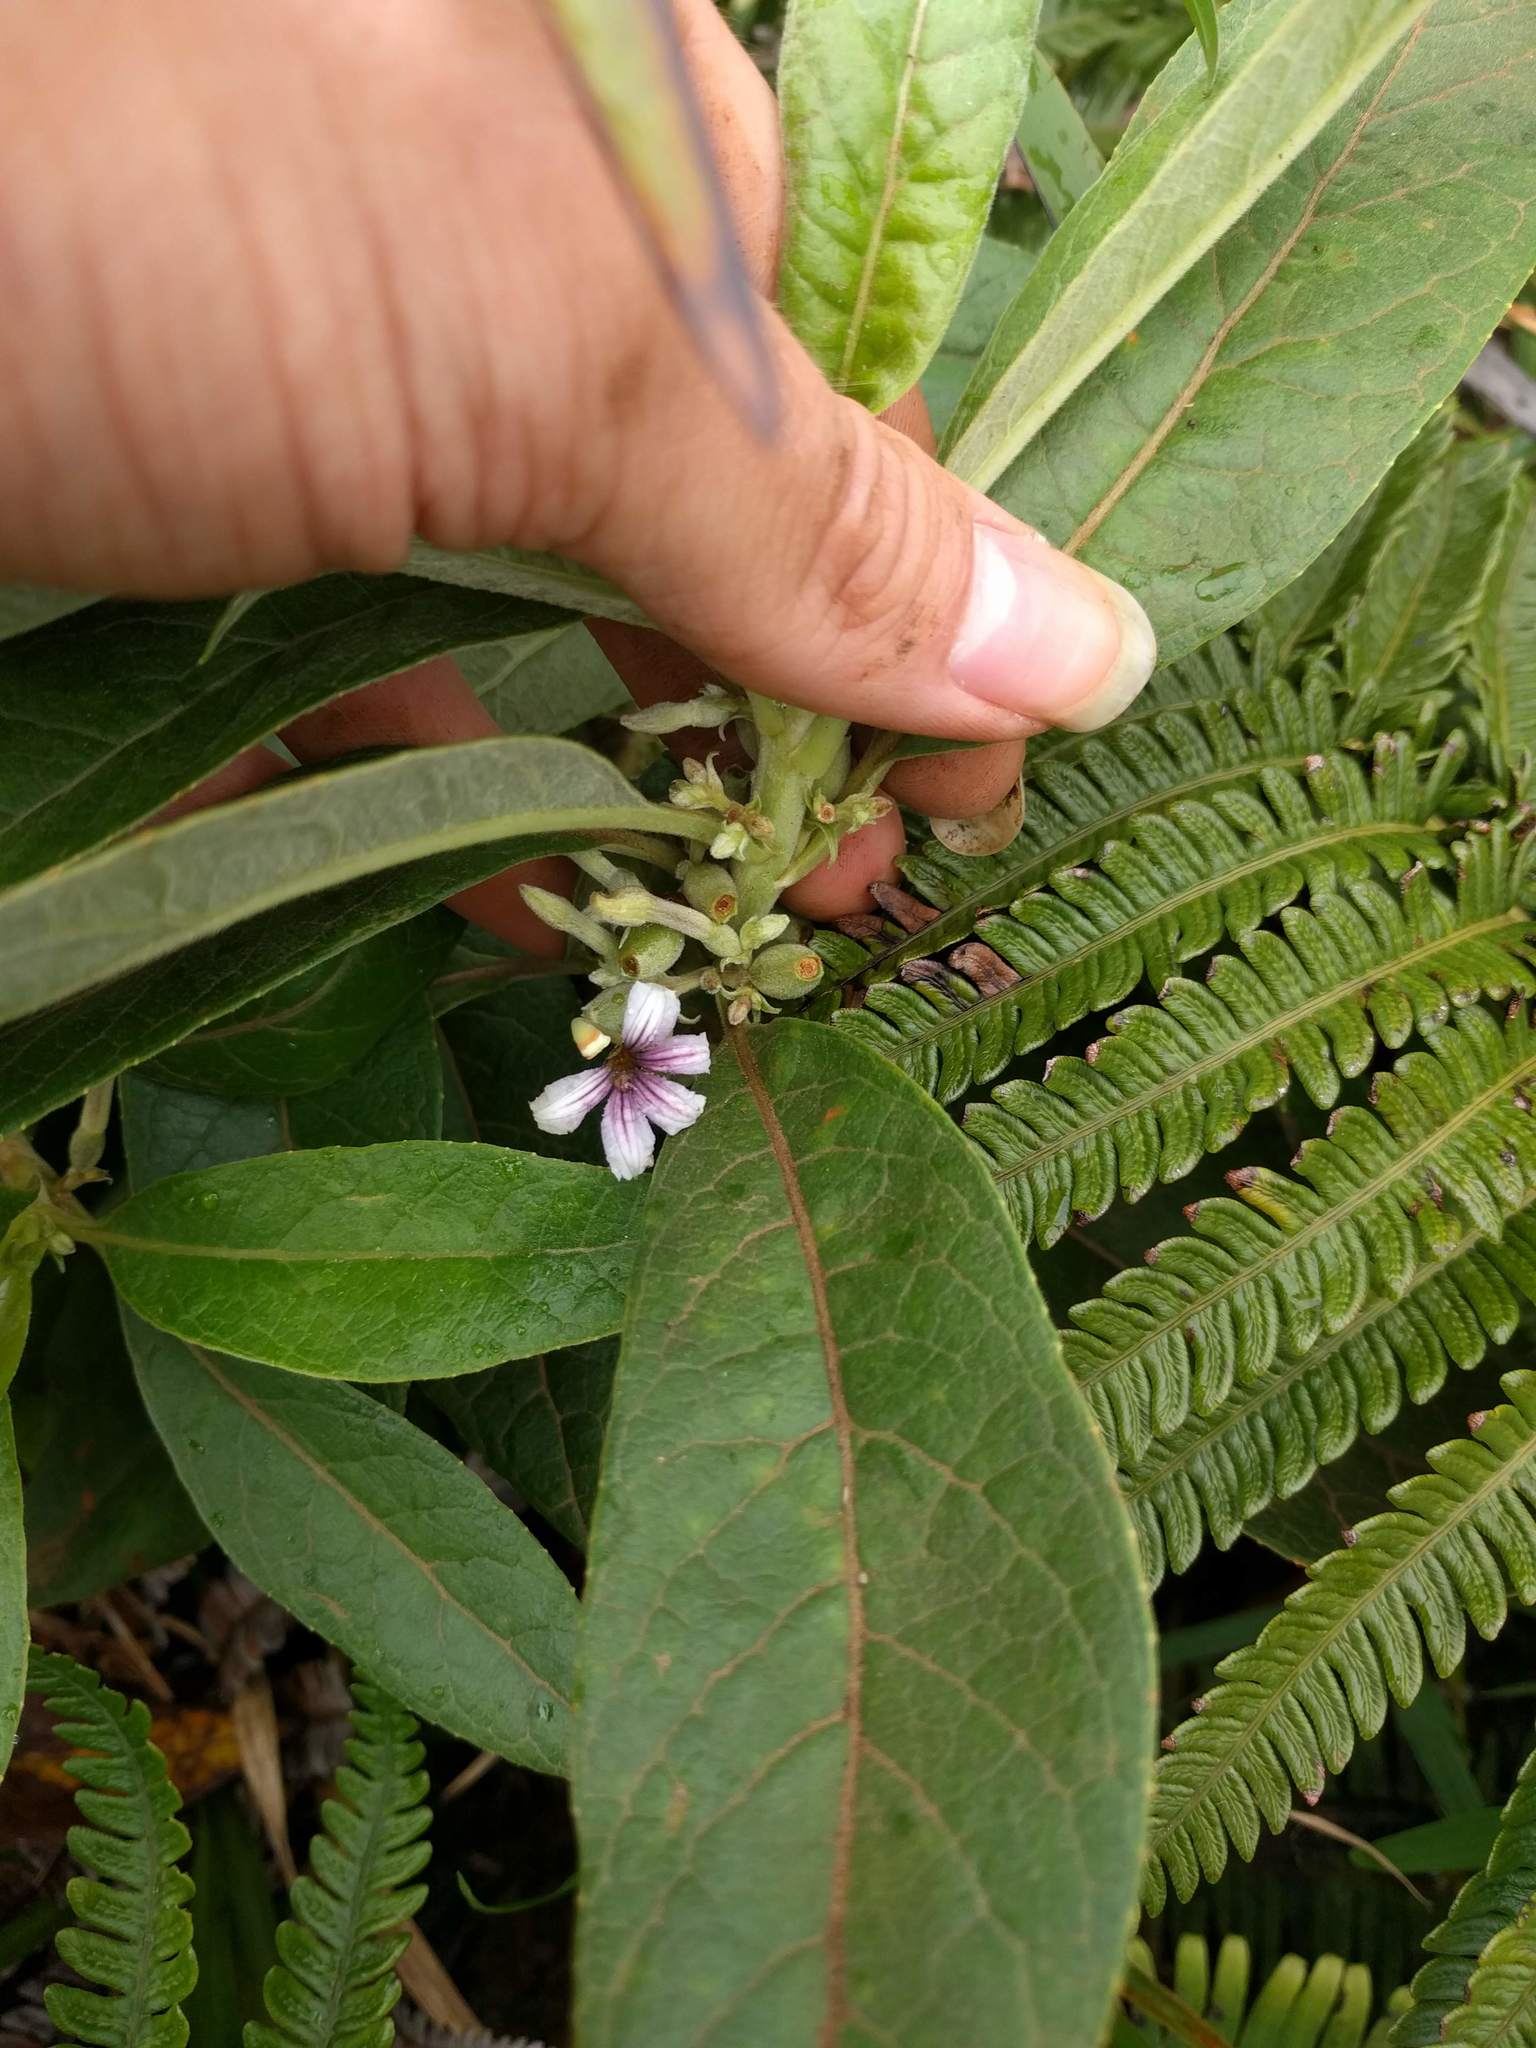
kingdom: Plantae
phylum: Tracheophyta
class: Magnoliopsida
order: Asterales
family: Goodeniaceae
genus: Scaevola
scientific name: Scaevola mollis
